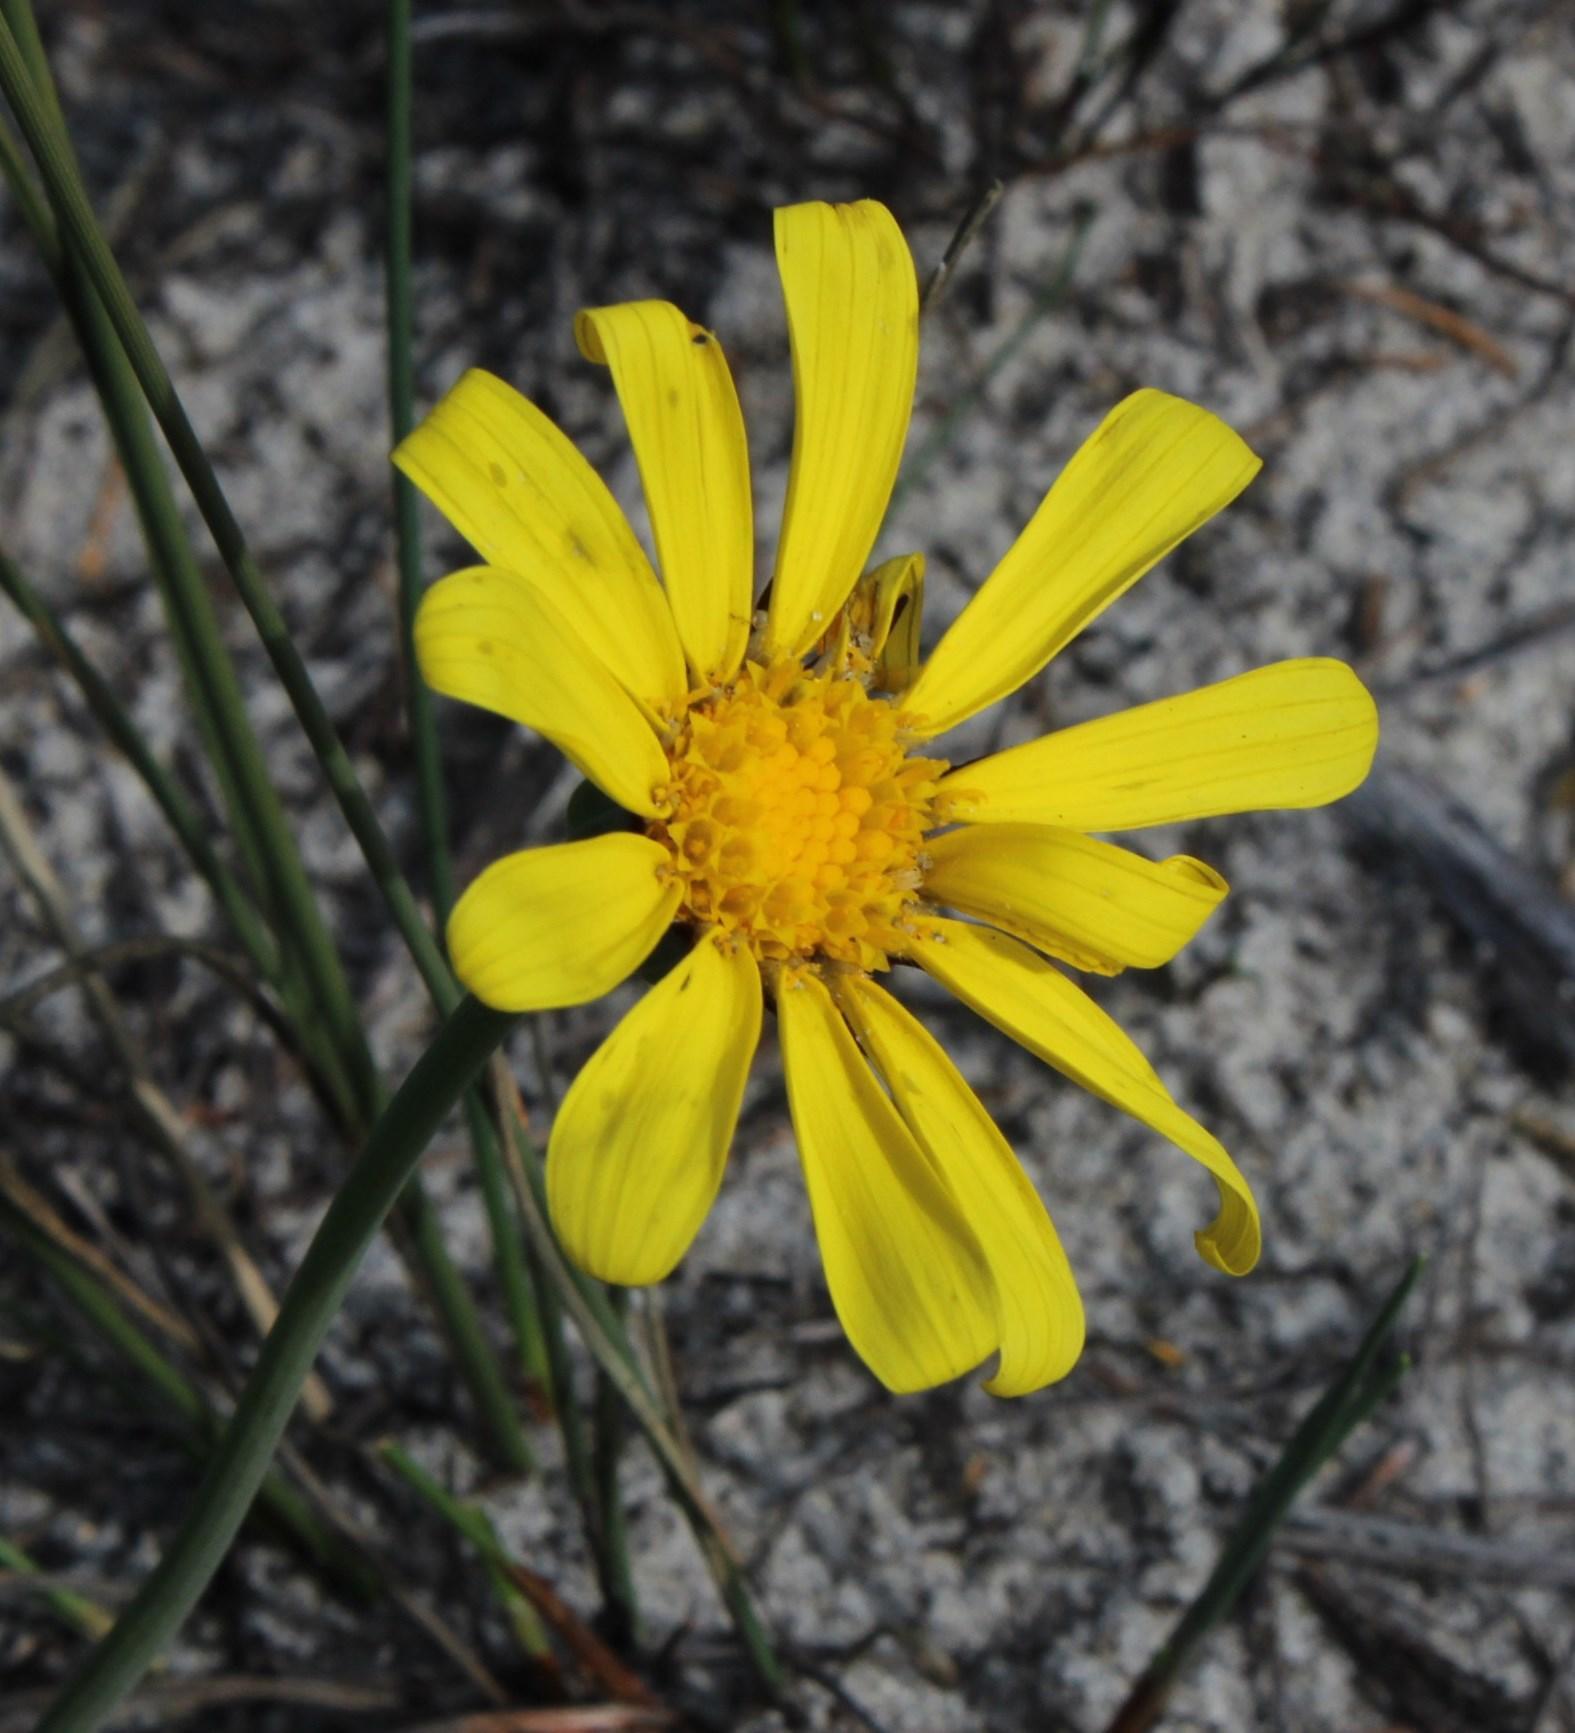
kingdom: Plantae
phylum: Tracheophyta
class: Magnoliopsida
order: Asterales
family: Asteraceae
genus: Othonna
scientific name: Othonna bulbosa
